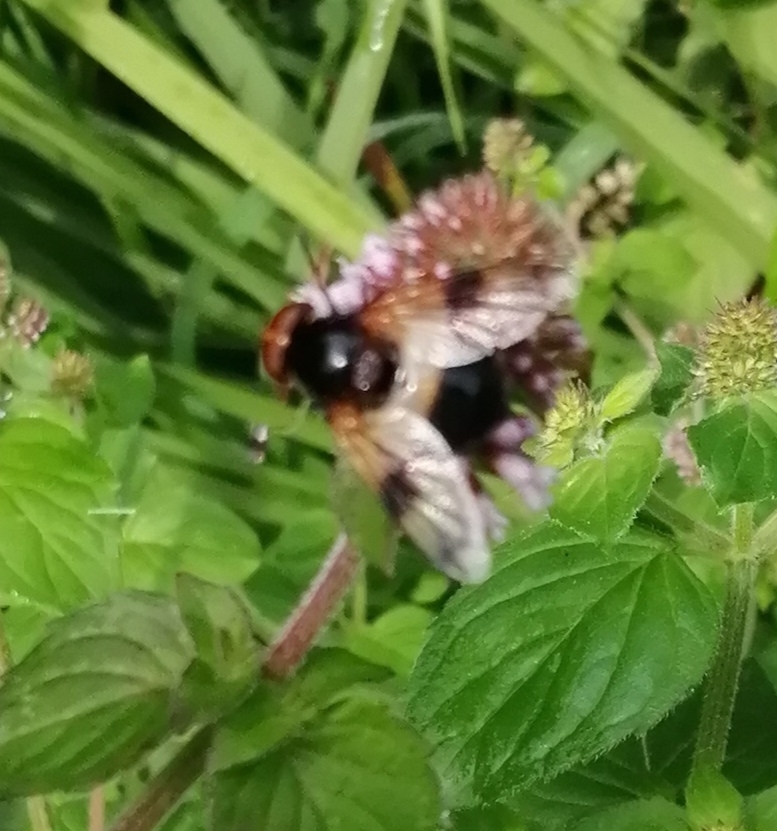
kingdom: Animalia
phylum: Arthropoda
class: Insecta
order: Diptera
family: Syrphidae
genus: Volucella
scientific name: Volucella pellucens
